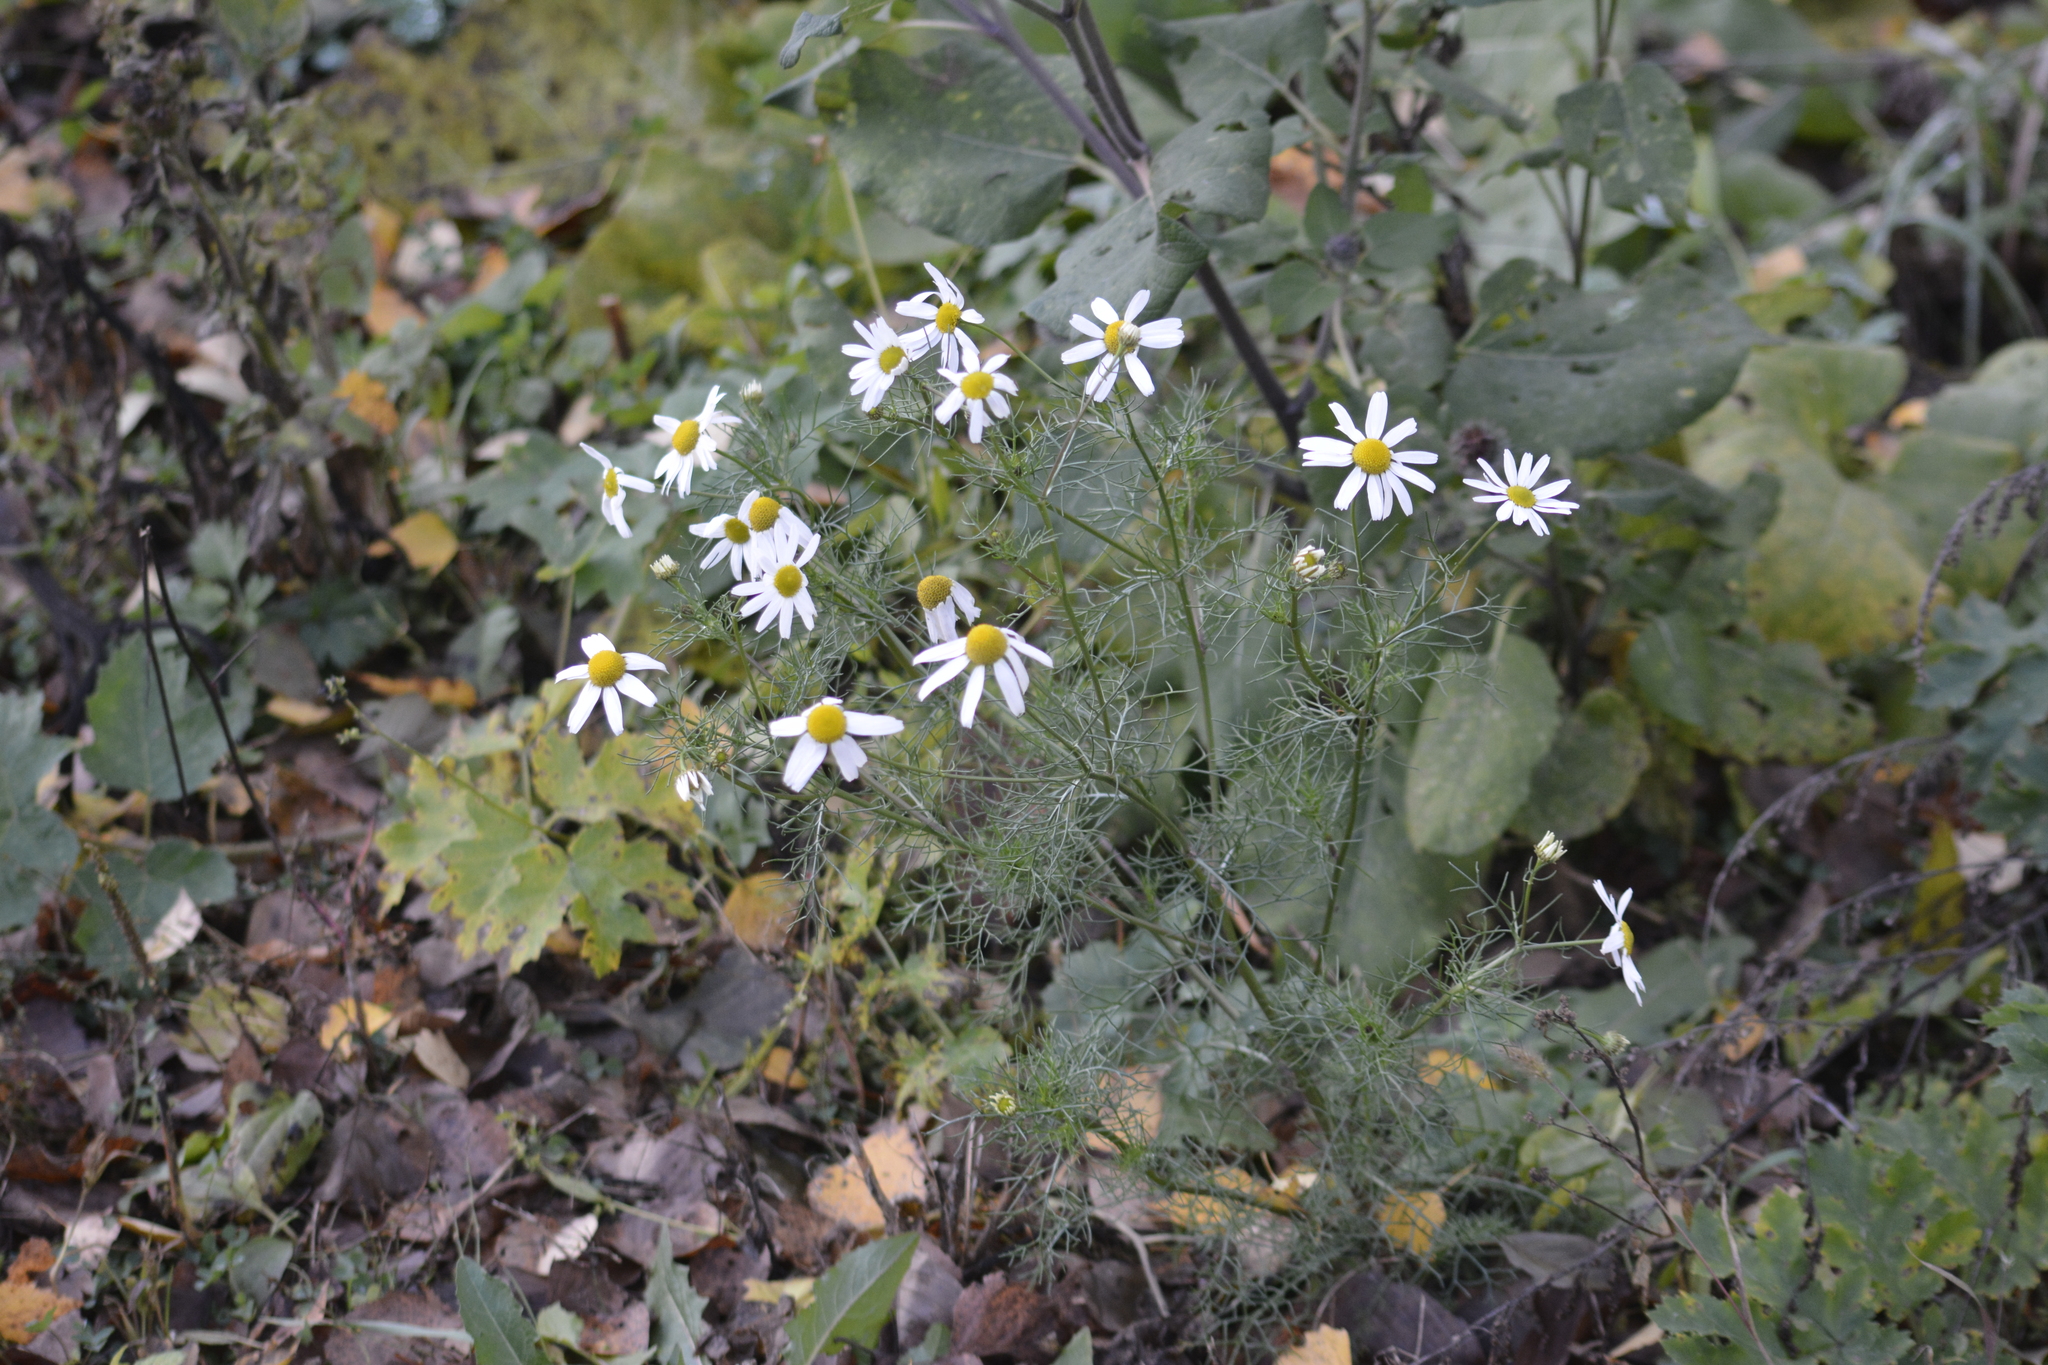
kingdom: Plantae
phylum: Tracheophyta
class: Magnoliopsida
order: Asterales
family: Asteraceae
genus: Tripleurospermum
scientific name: Tripleurospermum inodorum
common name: Scentless mayweed
